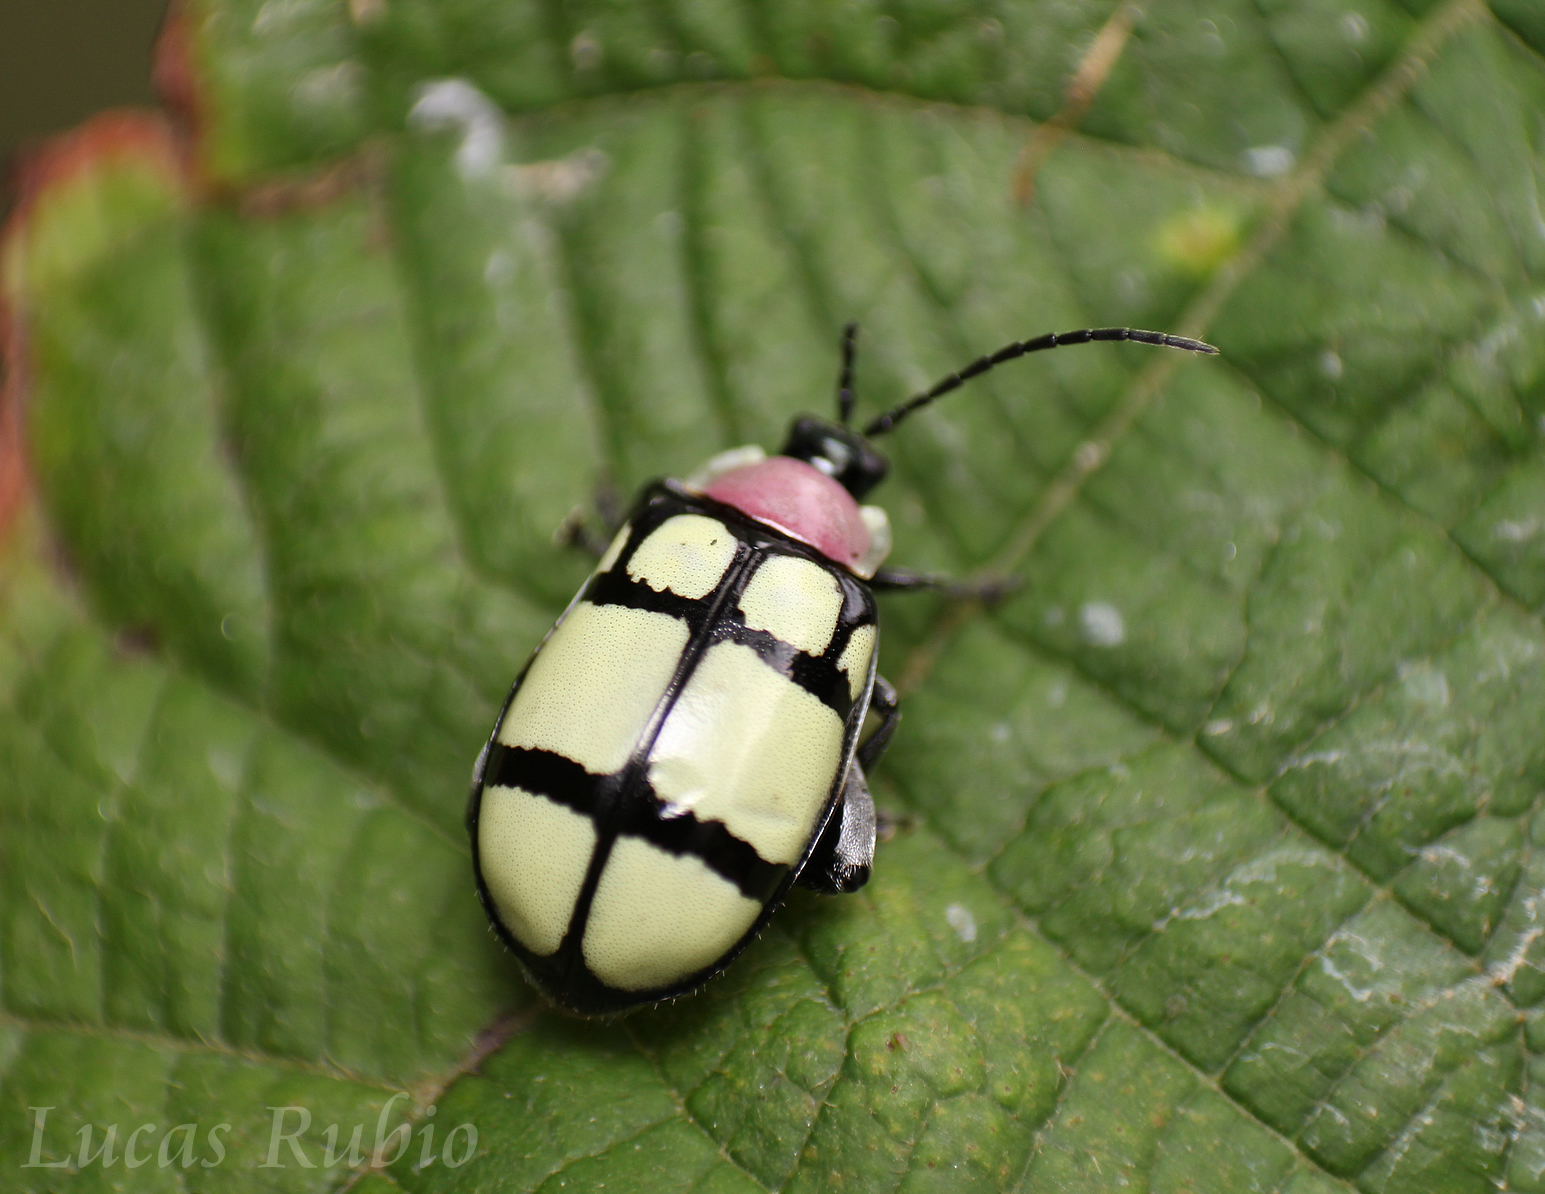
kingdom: Animalia
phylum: Arthropoda
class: Insecta
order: Coleoptera
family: Chrysomelidae
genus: Alagoasa
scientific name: Alagoasa
